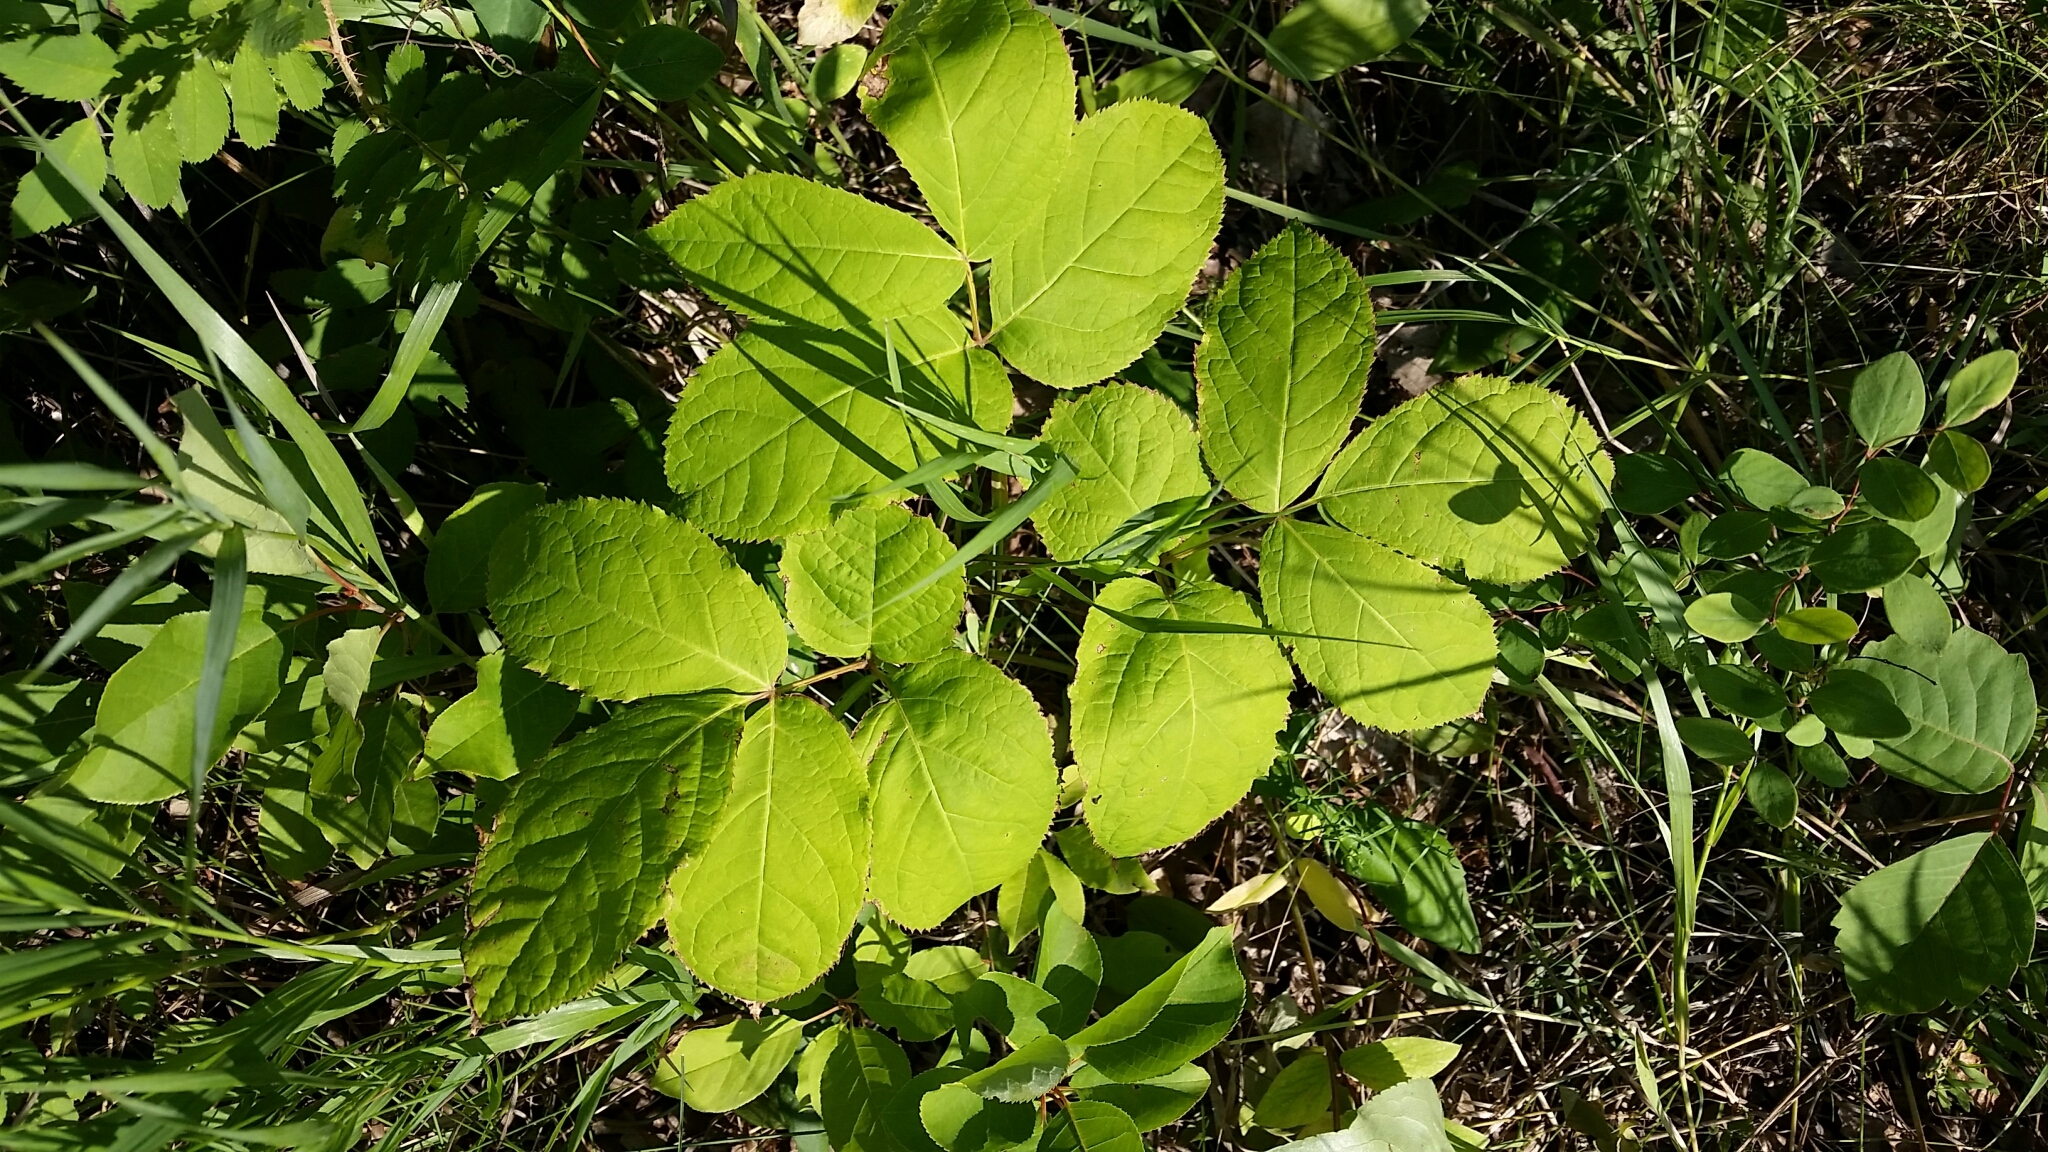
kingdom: Plantae
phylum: Tracheophyta
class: Magnoliopsida
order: Apiales
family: Araliaceae
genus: Aralia
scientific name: Aralia nudicaulis
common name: Wild sarsaparilla
